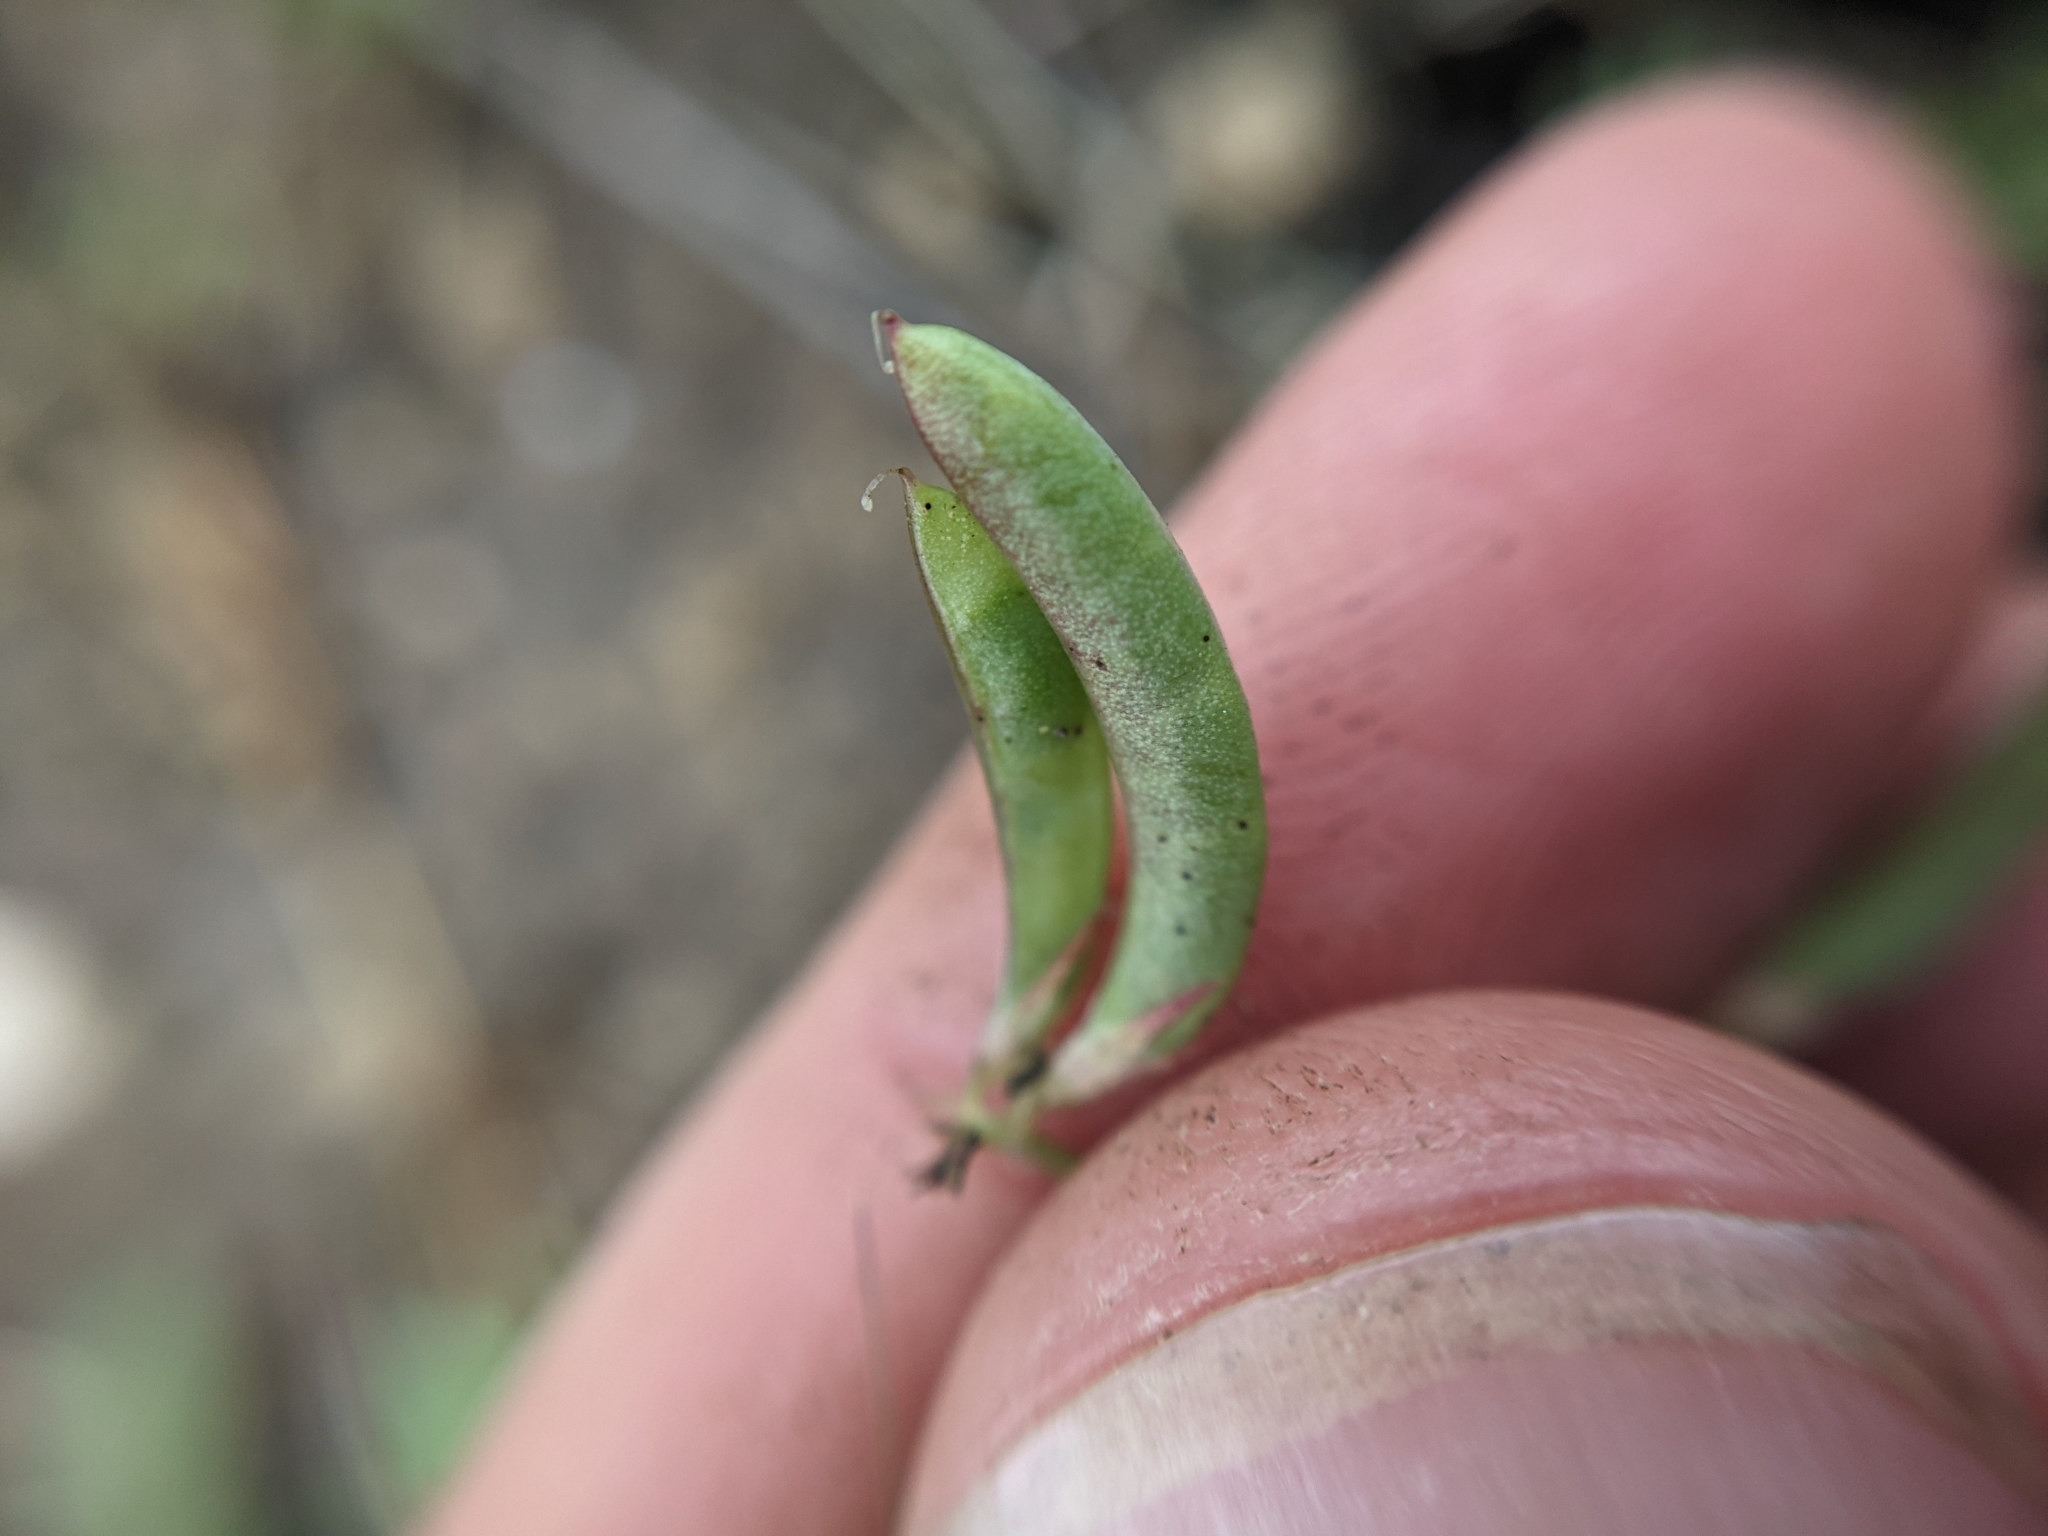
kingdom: Plantae
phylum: Tracheophyta
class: Magnoliopsida
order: Fabales
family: Fabaceae
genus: Astragalus
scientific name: Astragalus nuttallianus
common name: Smallflowered milkvetch
